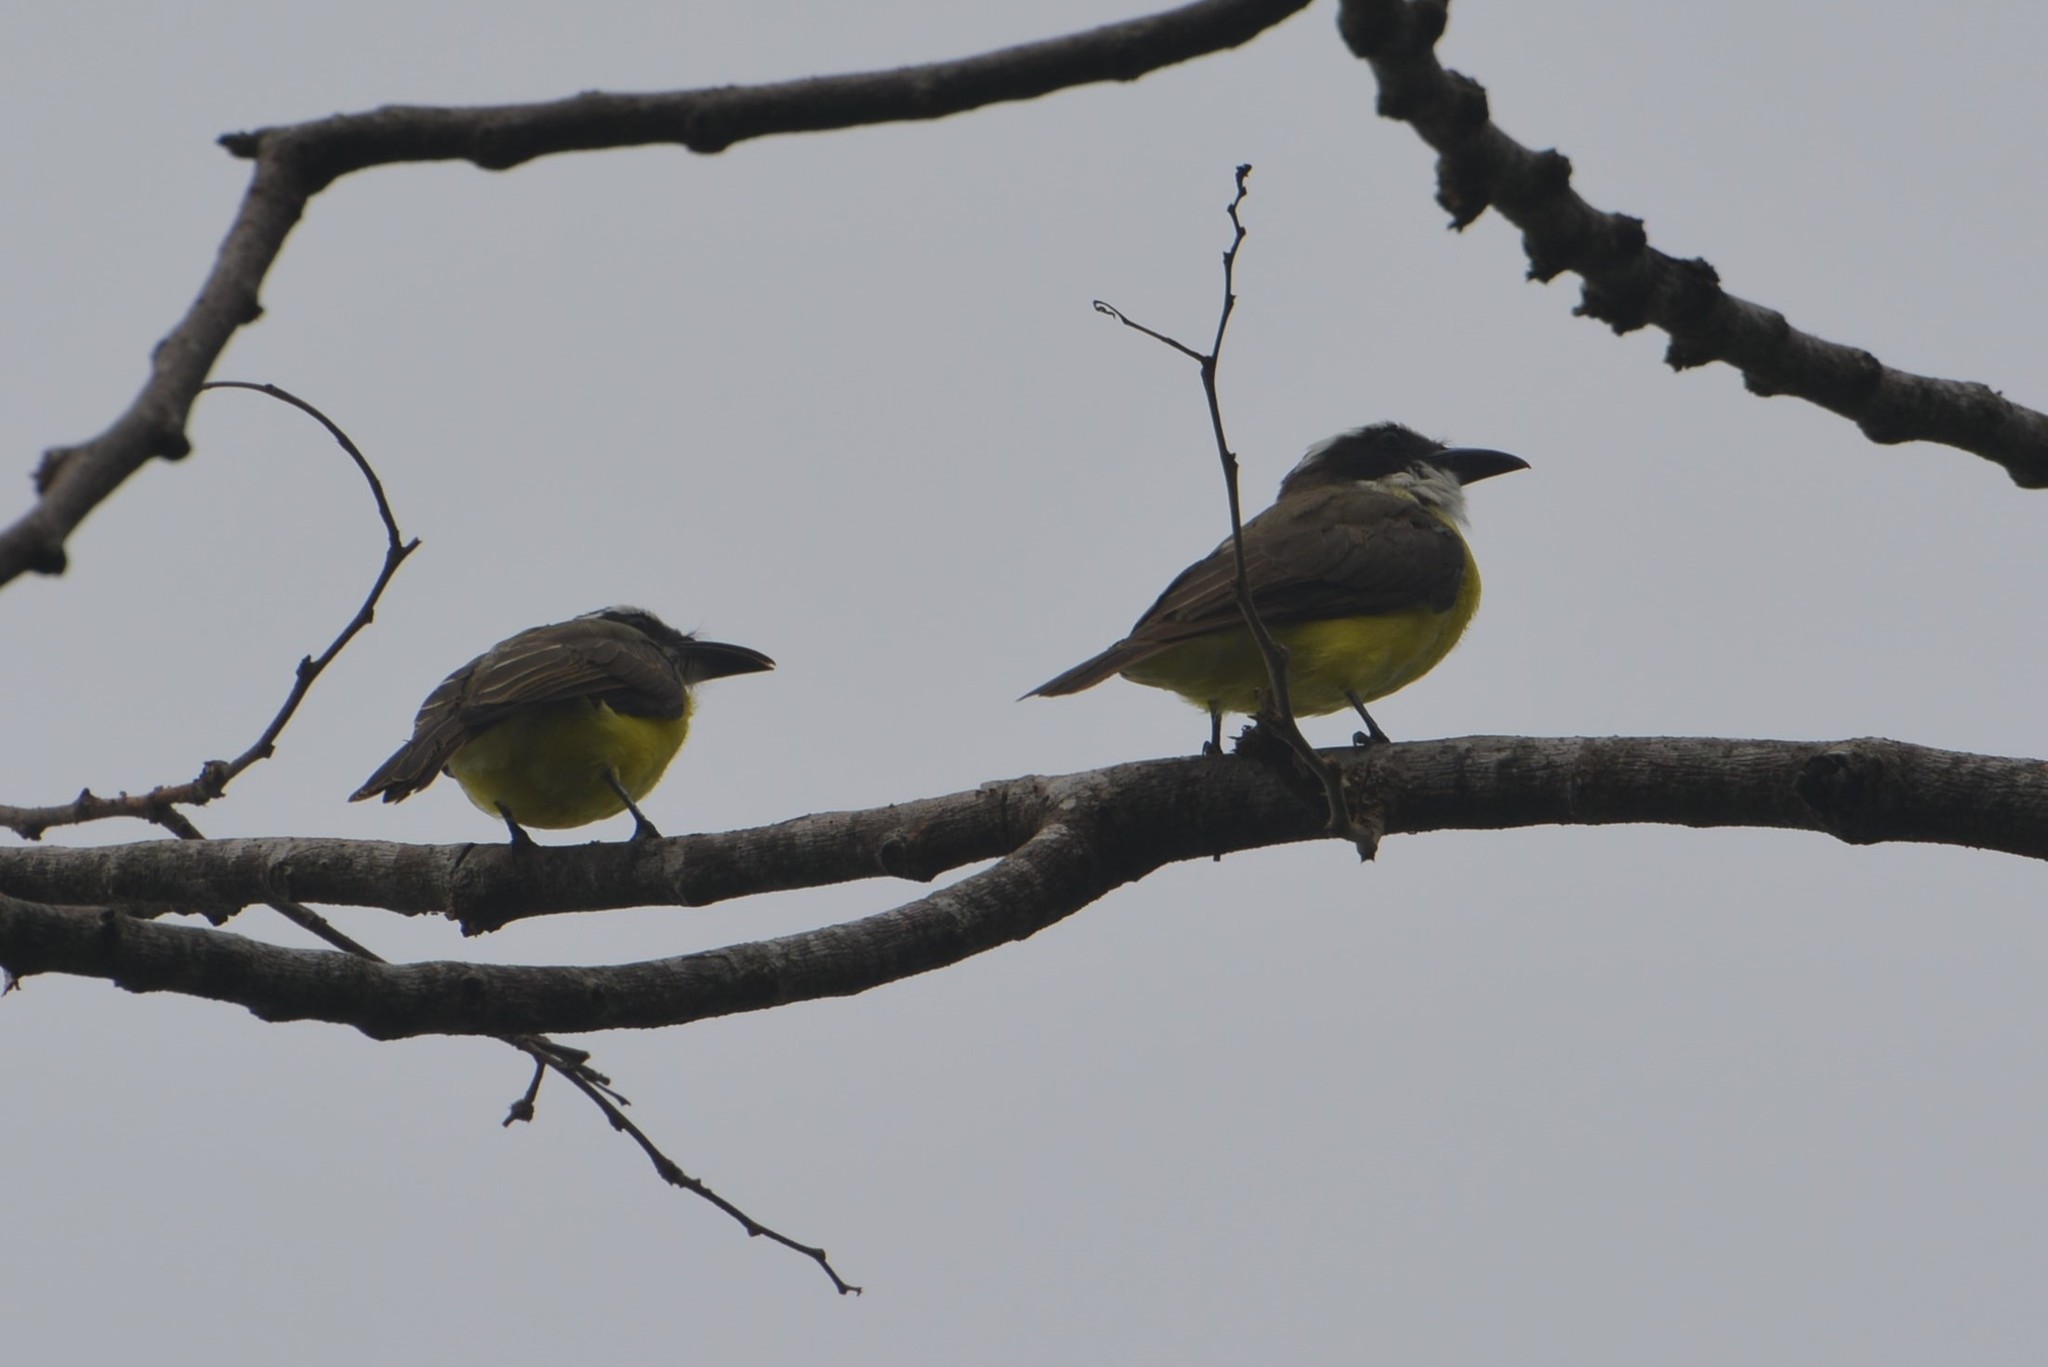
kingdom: Animalia
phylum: Chordata
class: Aves
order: Passeriformes
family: Tyrannidae
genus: Megarynchus
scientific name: Megarynchus pitangua
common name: Boat-billed flycatcher
